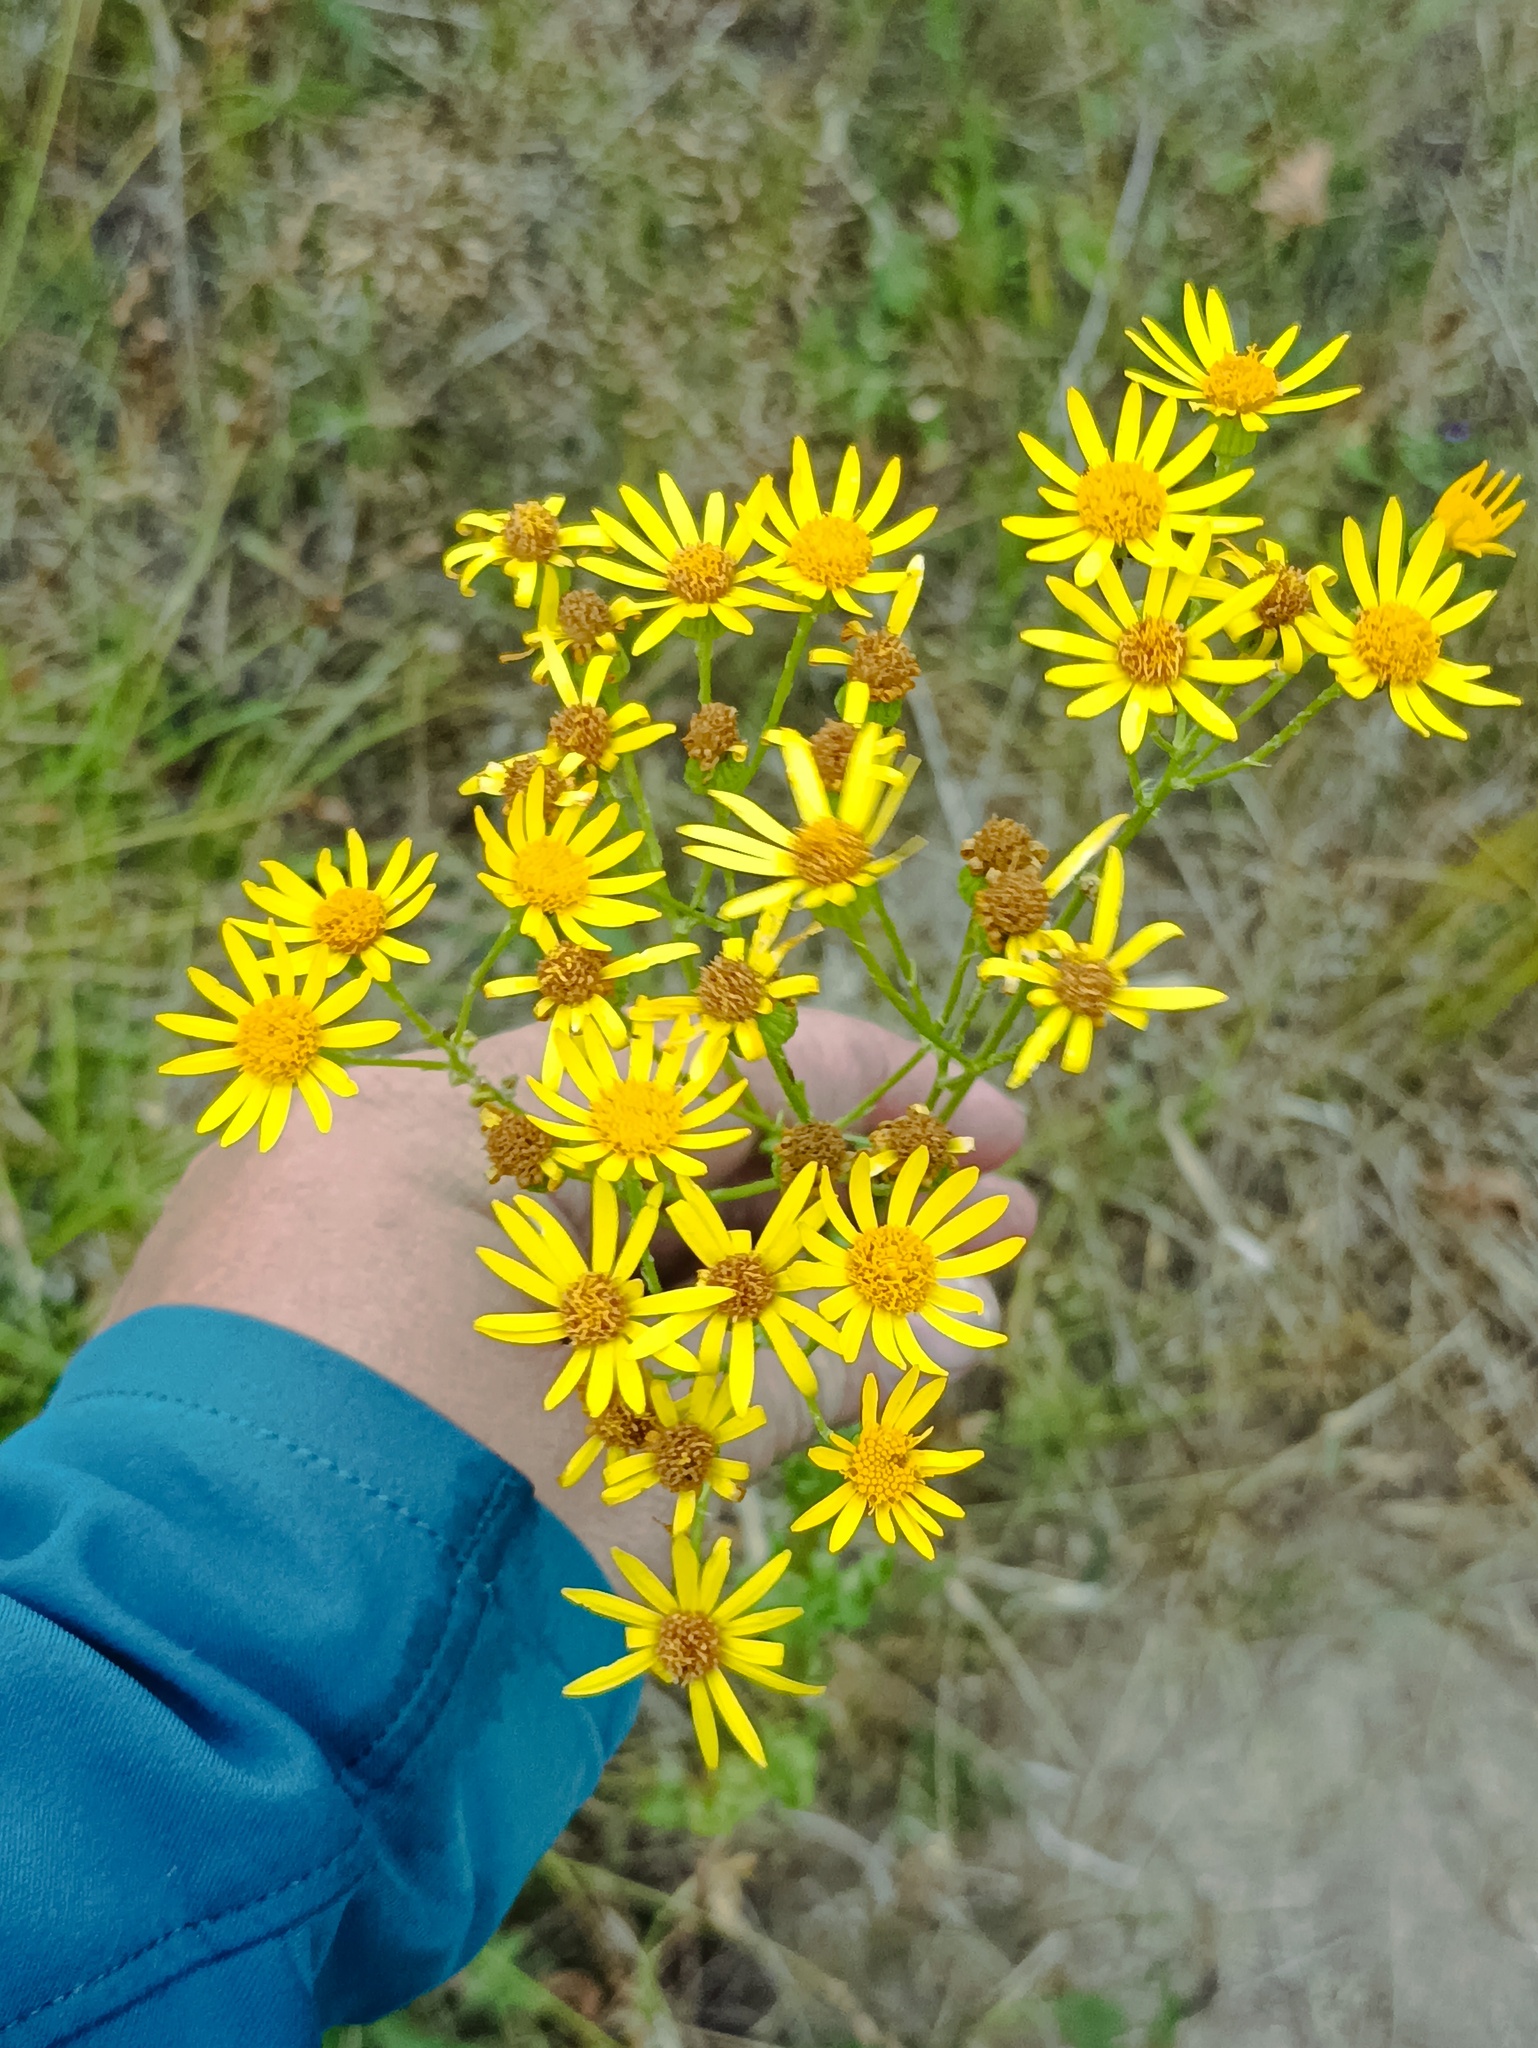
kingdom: Plantae
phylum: Tracheophyta
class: Magnoliopsida
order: Asterales
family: Asteraceae
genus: Jacobaea
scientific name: Jacobaea vulgaris
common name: Stinking willie
